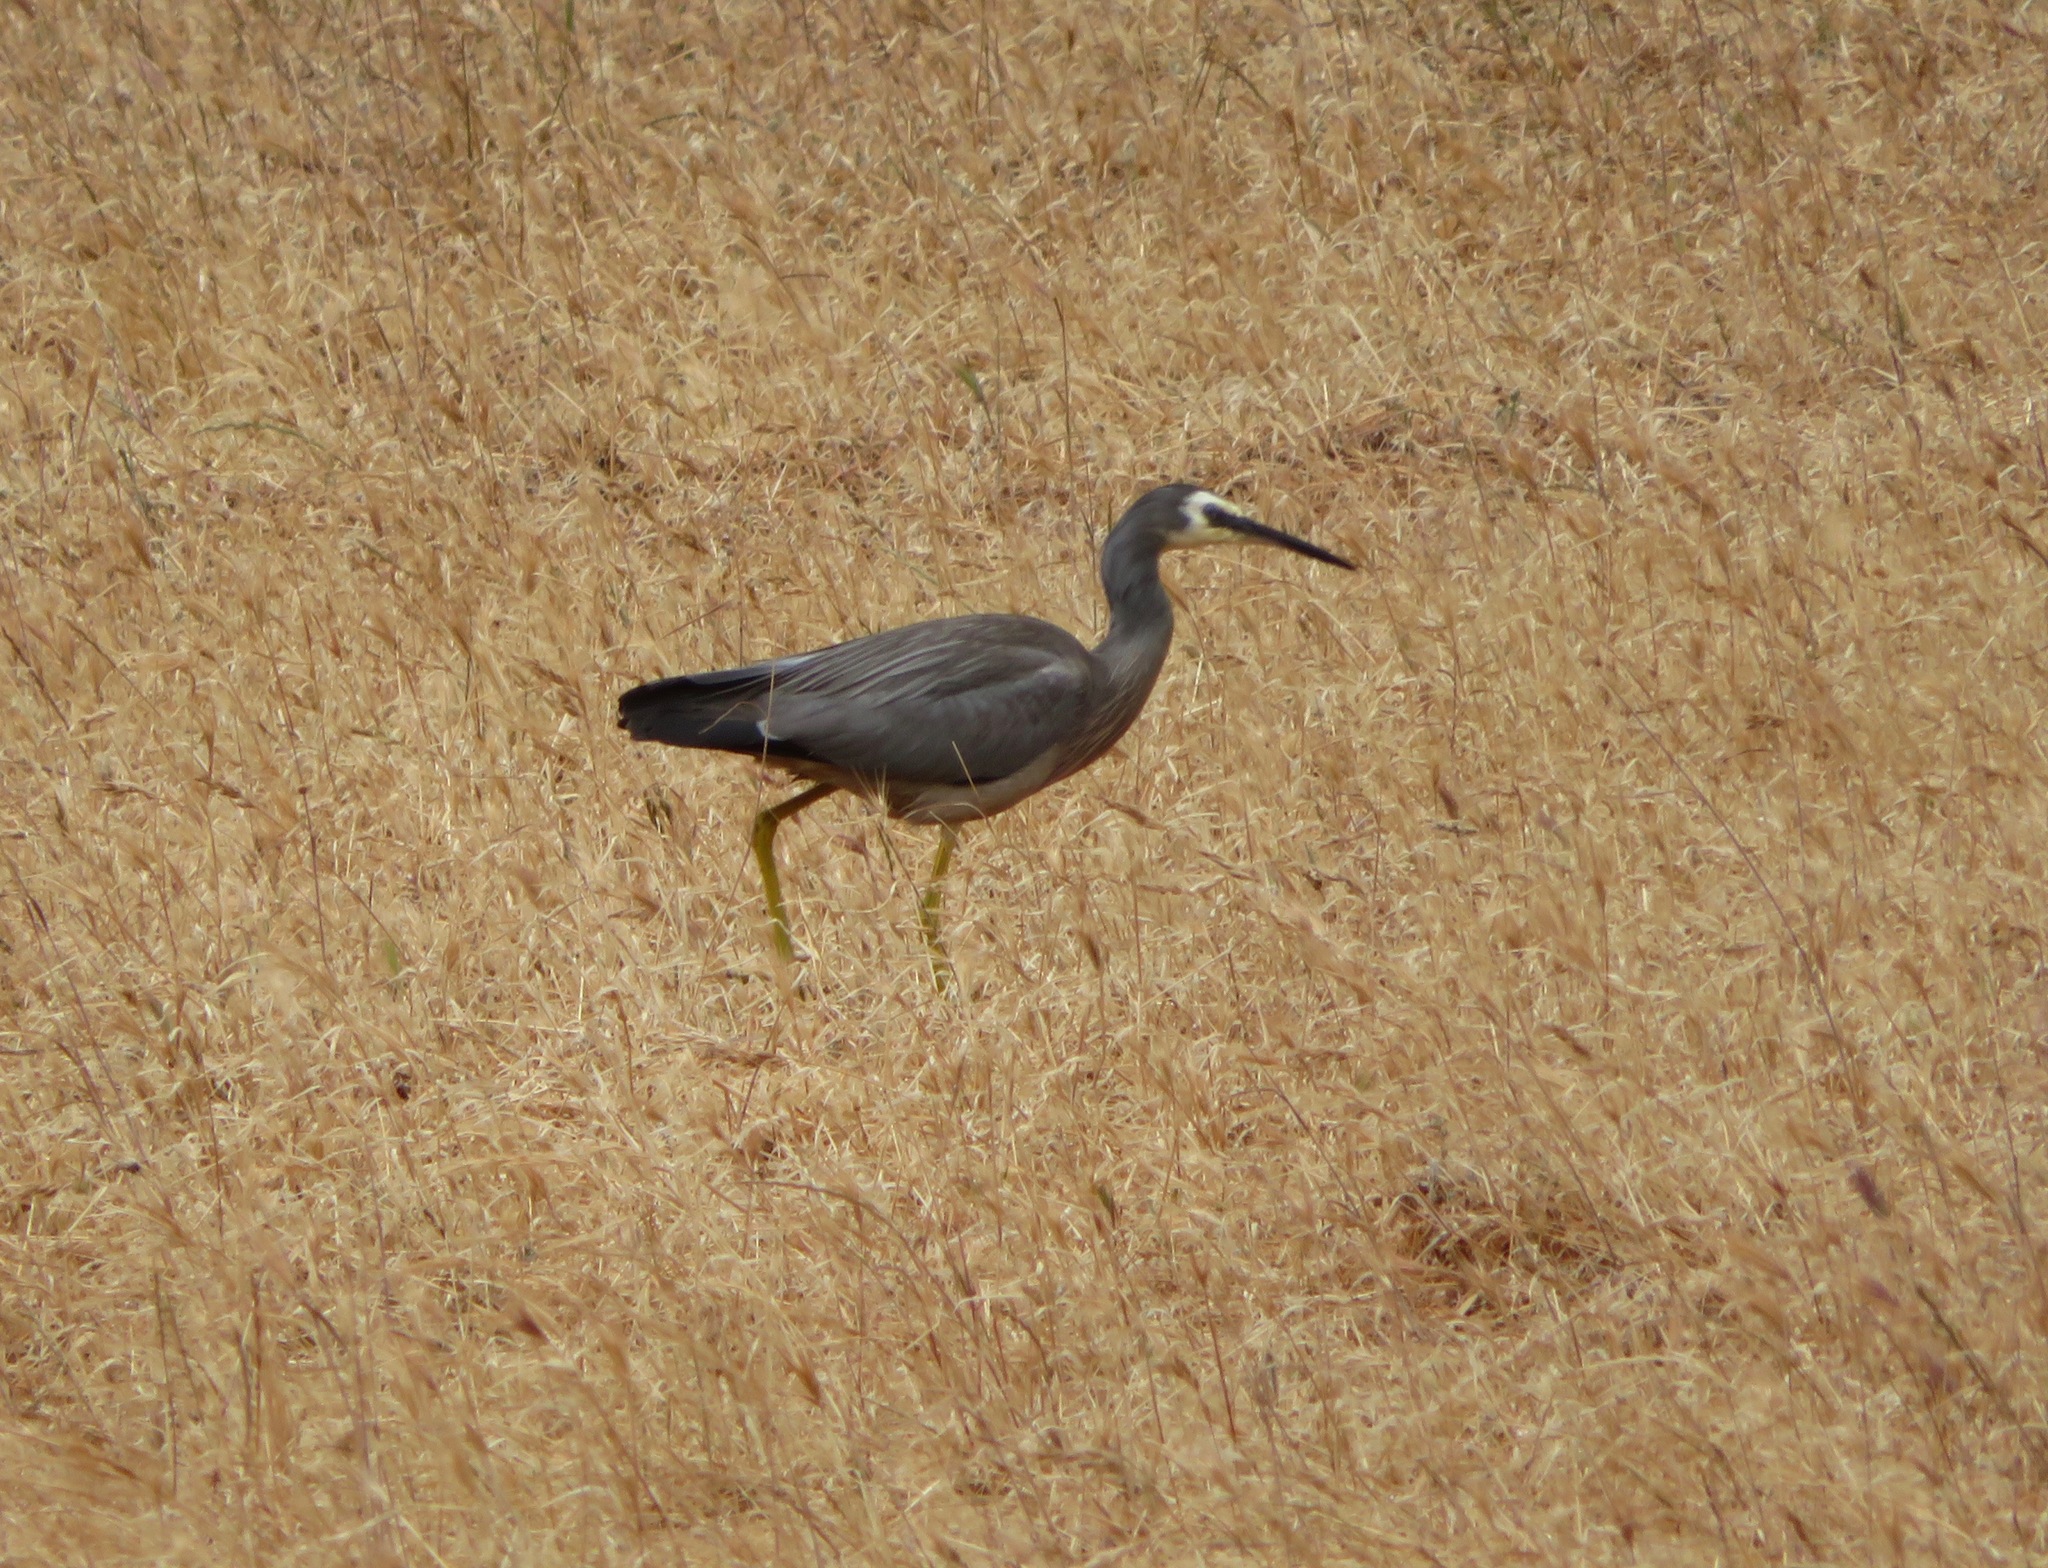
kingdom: Animalia
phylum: Chordata
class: Aves
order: Pelecaniformes
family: Ardeidae
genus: Egretta
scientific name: Egretta novaehollandiae
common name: White-faced heron
